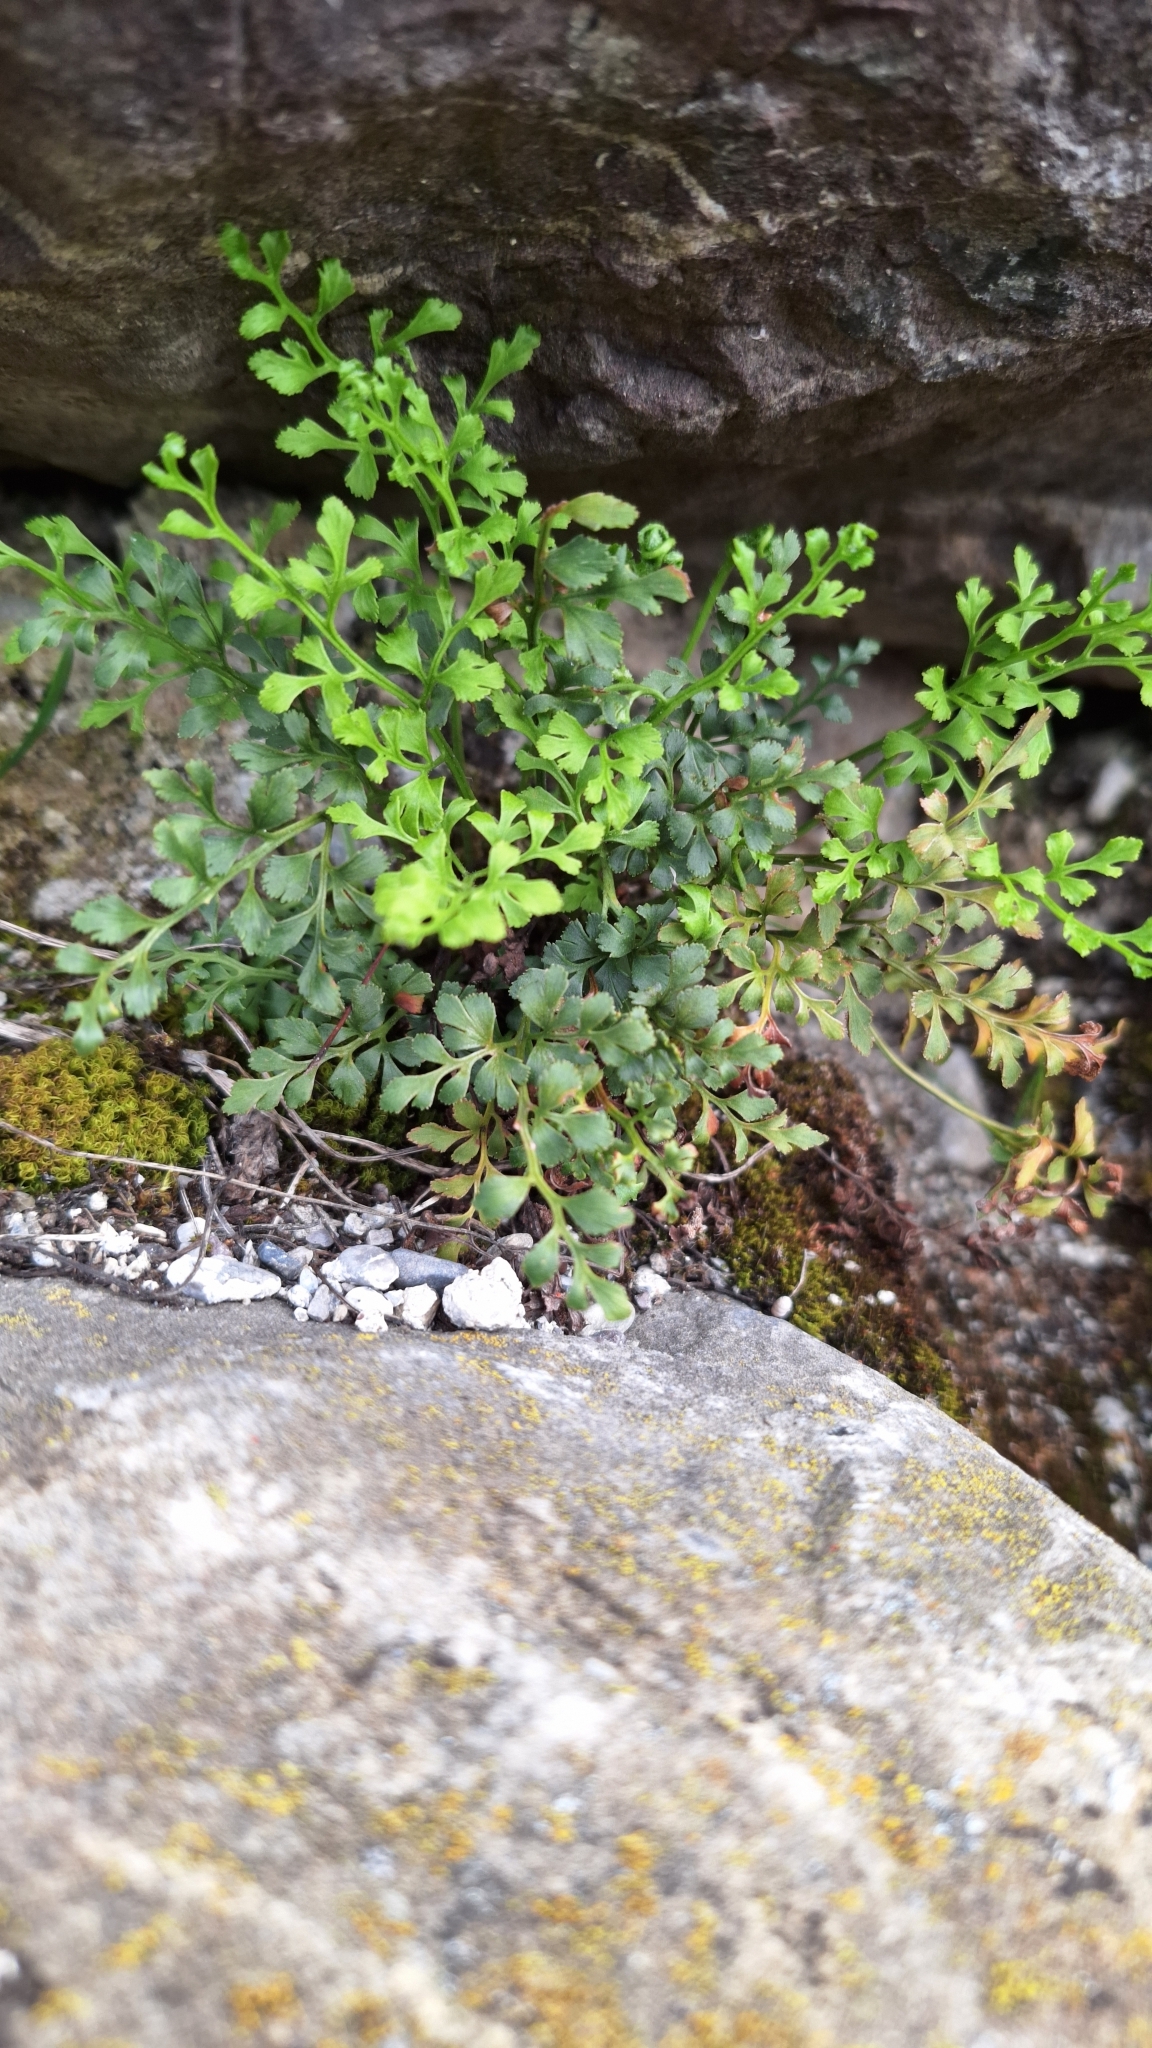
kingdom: Plantae
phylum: Tracheophyta
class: Polypodiopsida
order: Polypodiales
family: Aspleniaceae
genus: Asplenium
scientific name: Asplenium ruta-muraria
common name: Wall-rue
